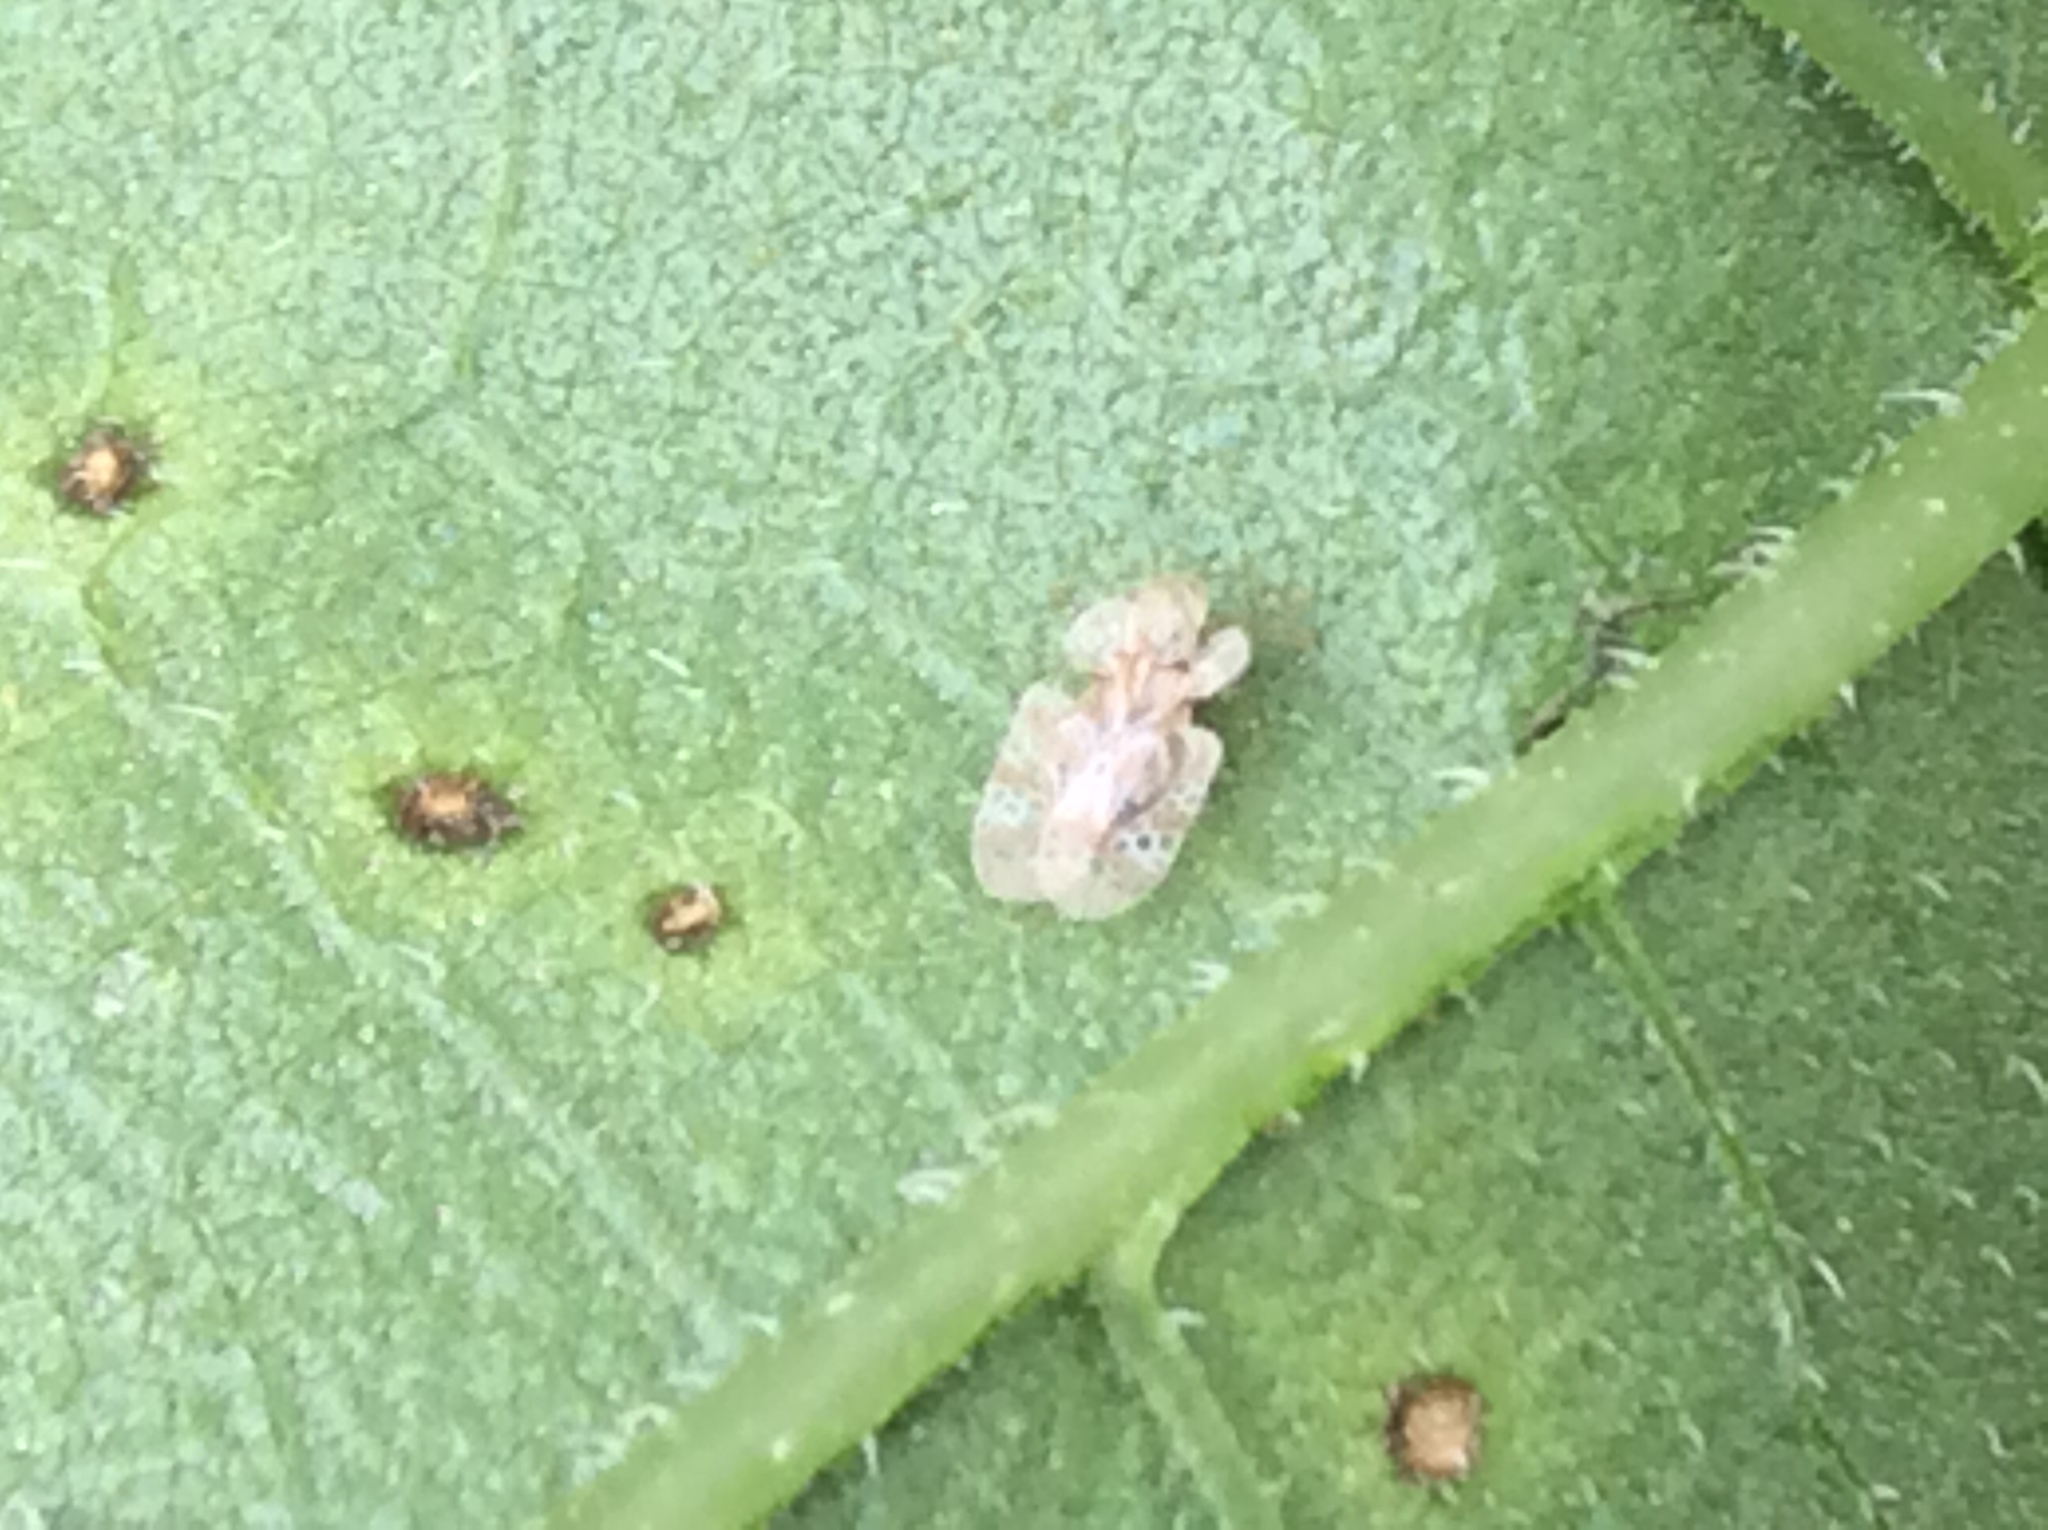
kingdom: Animalia
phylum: Arthropoda
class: Insecta
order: Hemiptera
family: Tingidae
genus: Corythucha
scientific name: Corythucha marmorata
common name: Chrysanthemum lace bug
